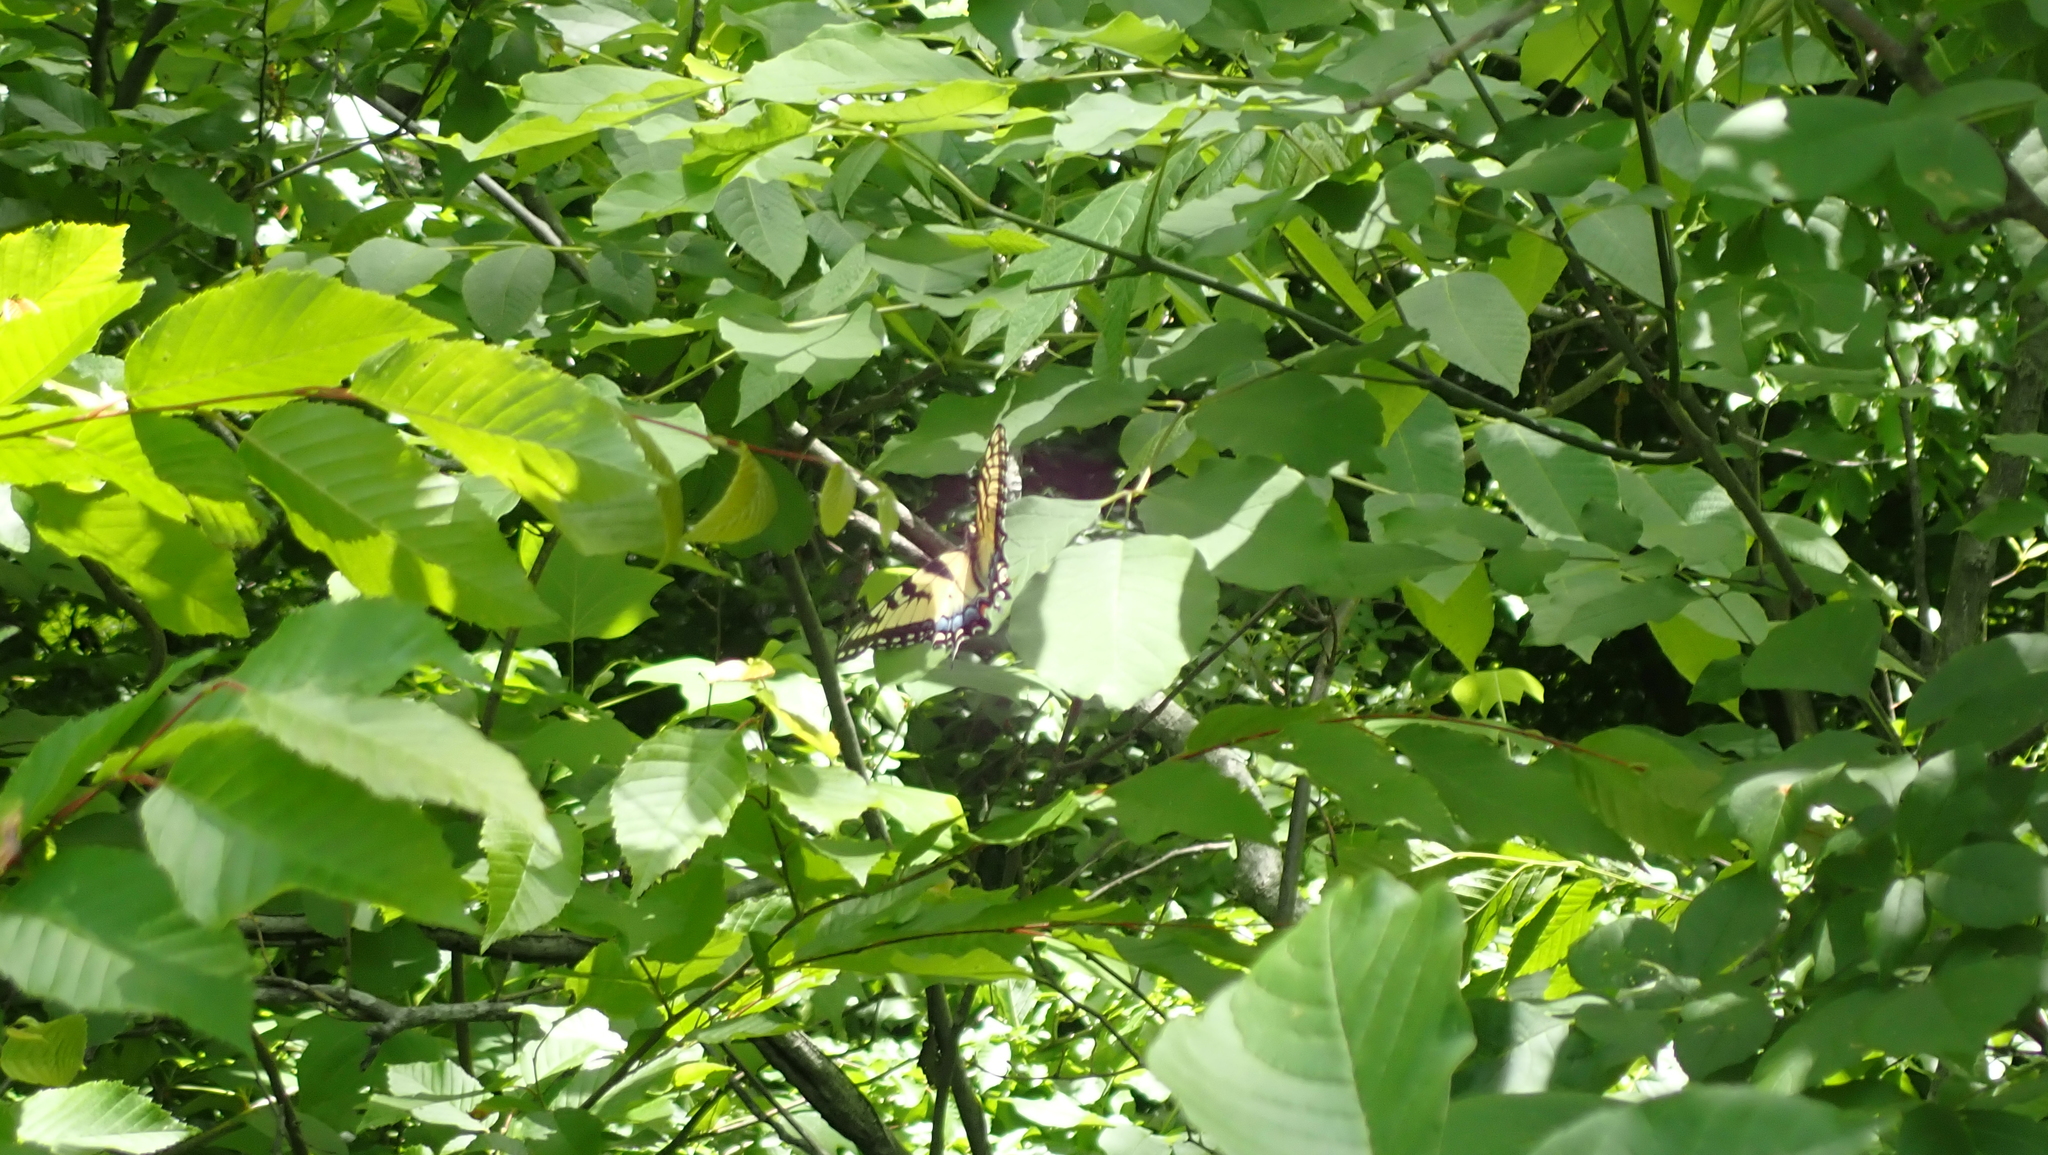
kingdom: Animalia
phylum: Arthropoda
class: Insecta
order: Lepidoptera
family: Papilionidae
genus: Papilio
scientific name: Papilio glaucus
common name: Tiger swallowtail
